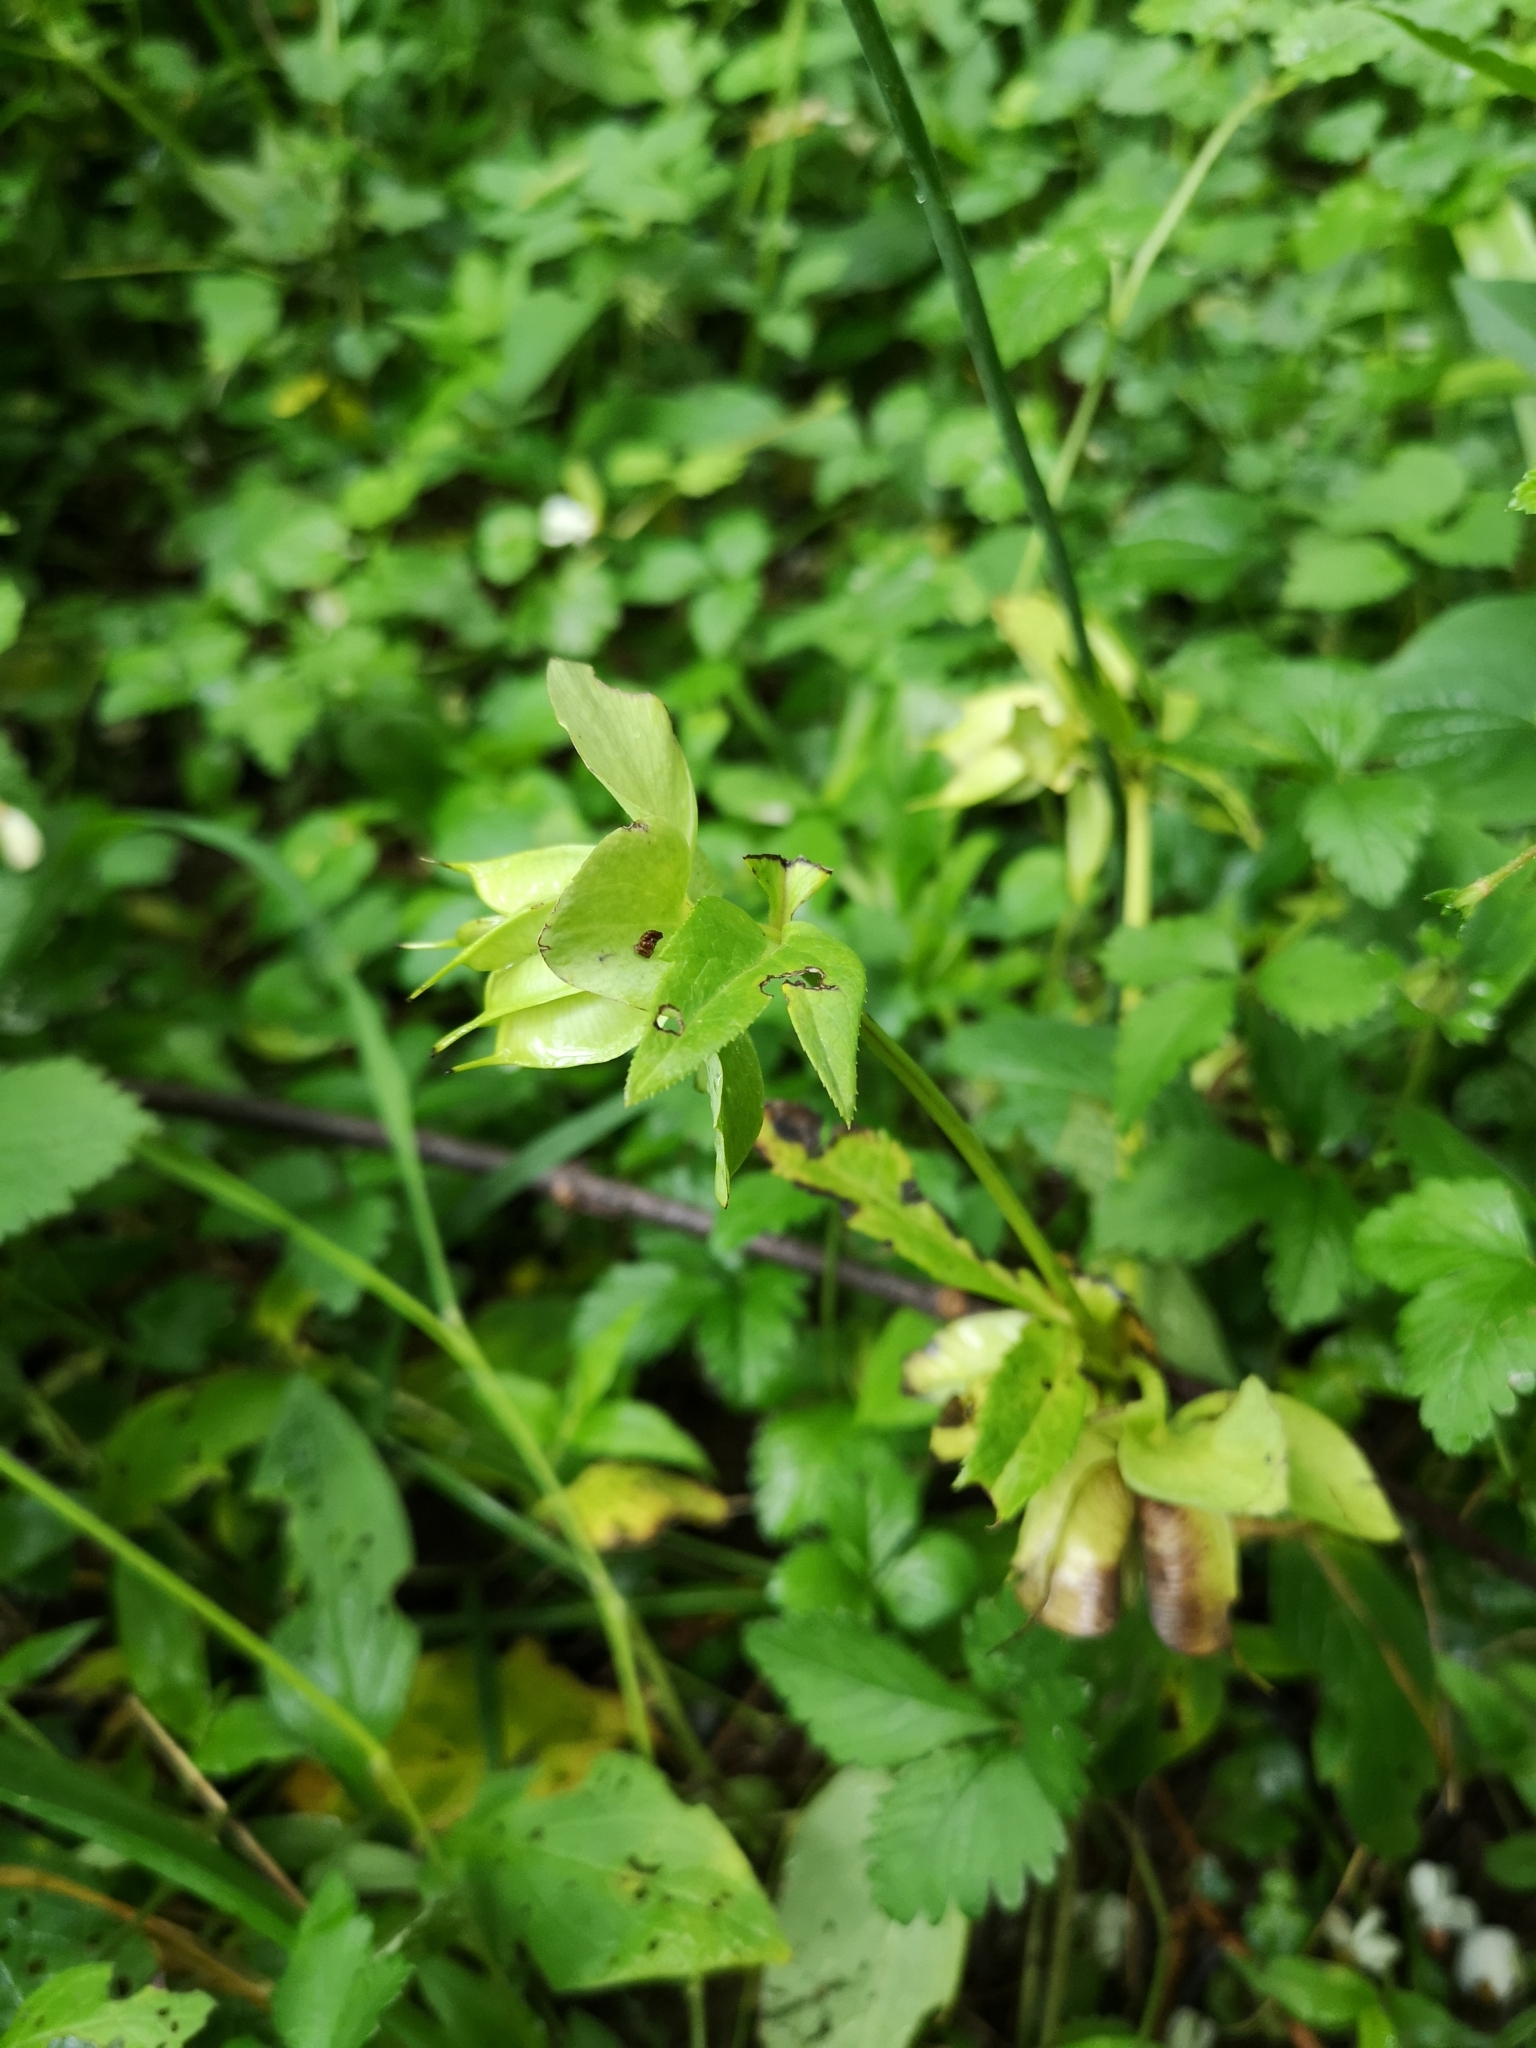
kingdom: Plantae
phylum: Tracheophyta
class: Magnoliopsida
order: Ranunculales
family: Ranunculaceae
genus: Helleborus
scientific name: Helleborus viridis
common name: Green hellebore
